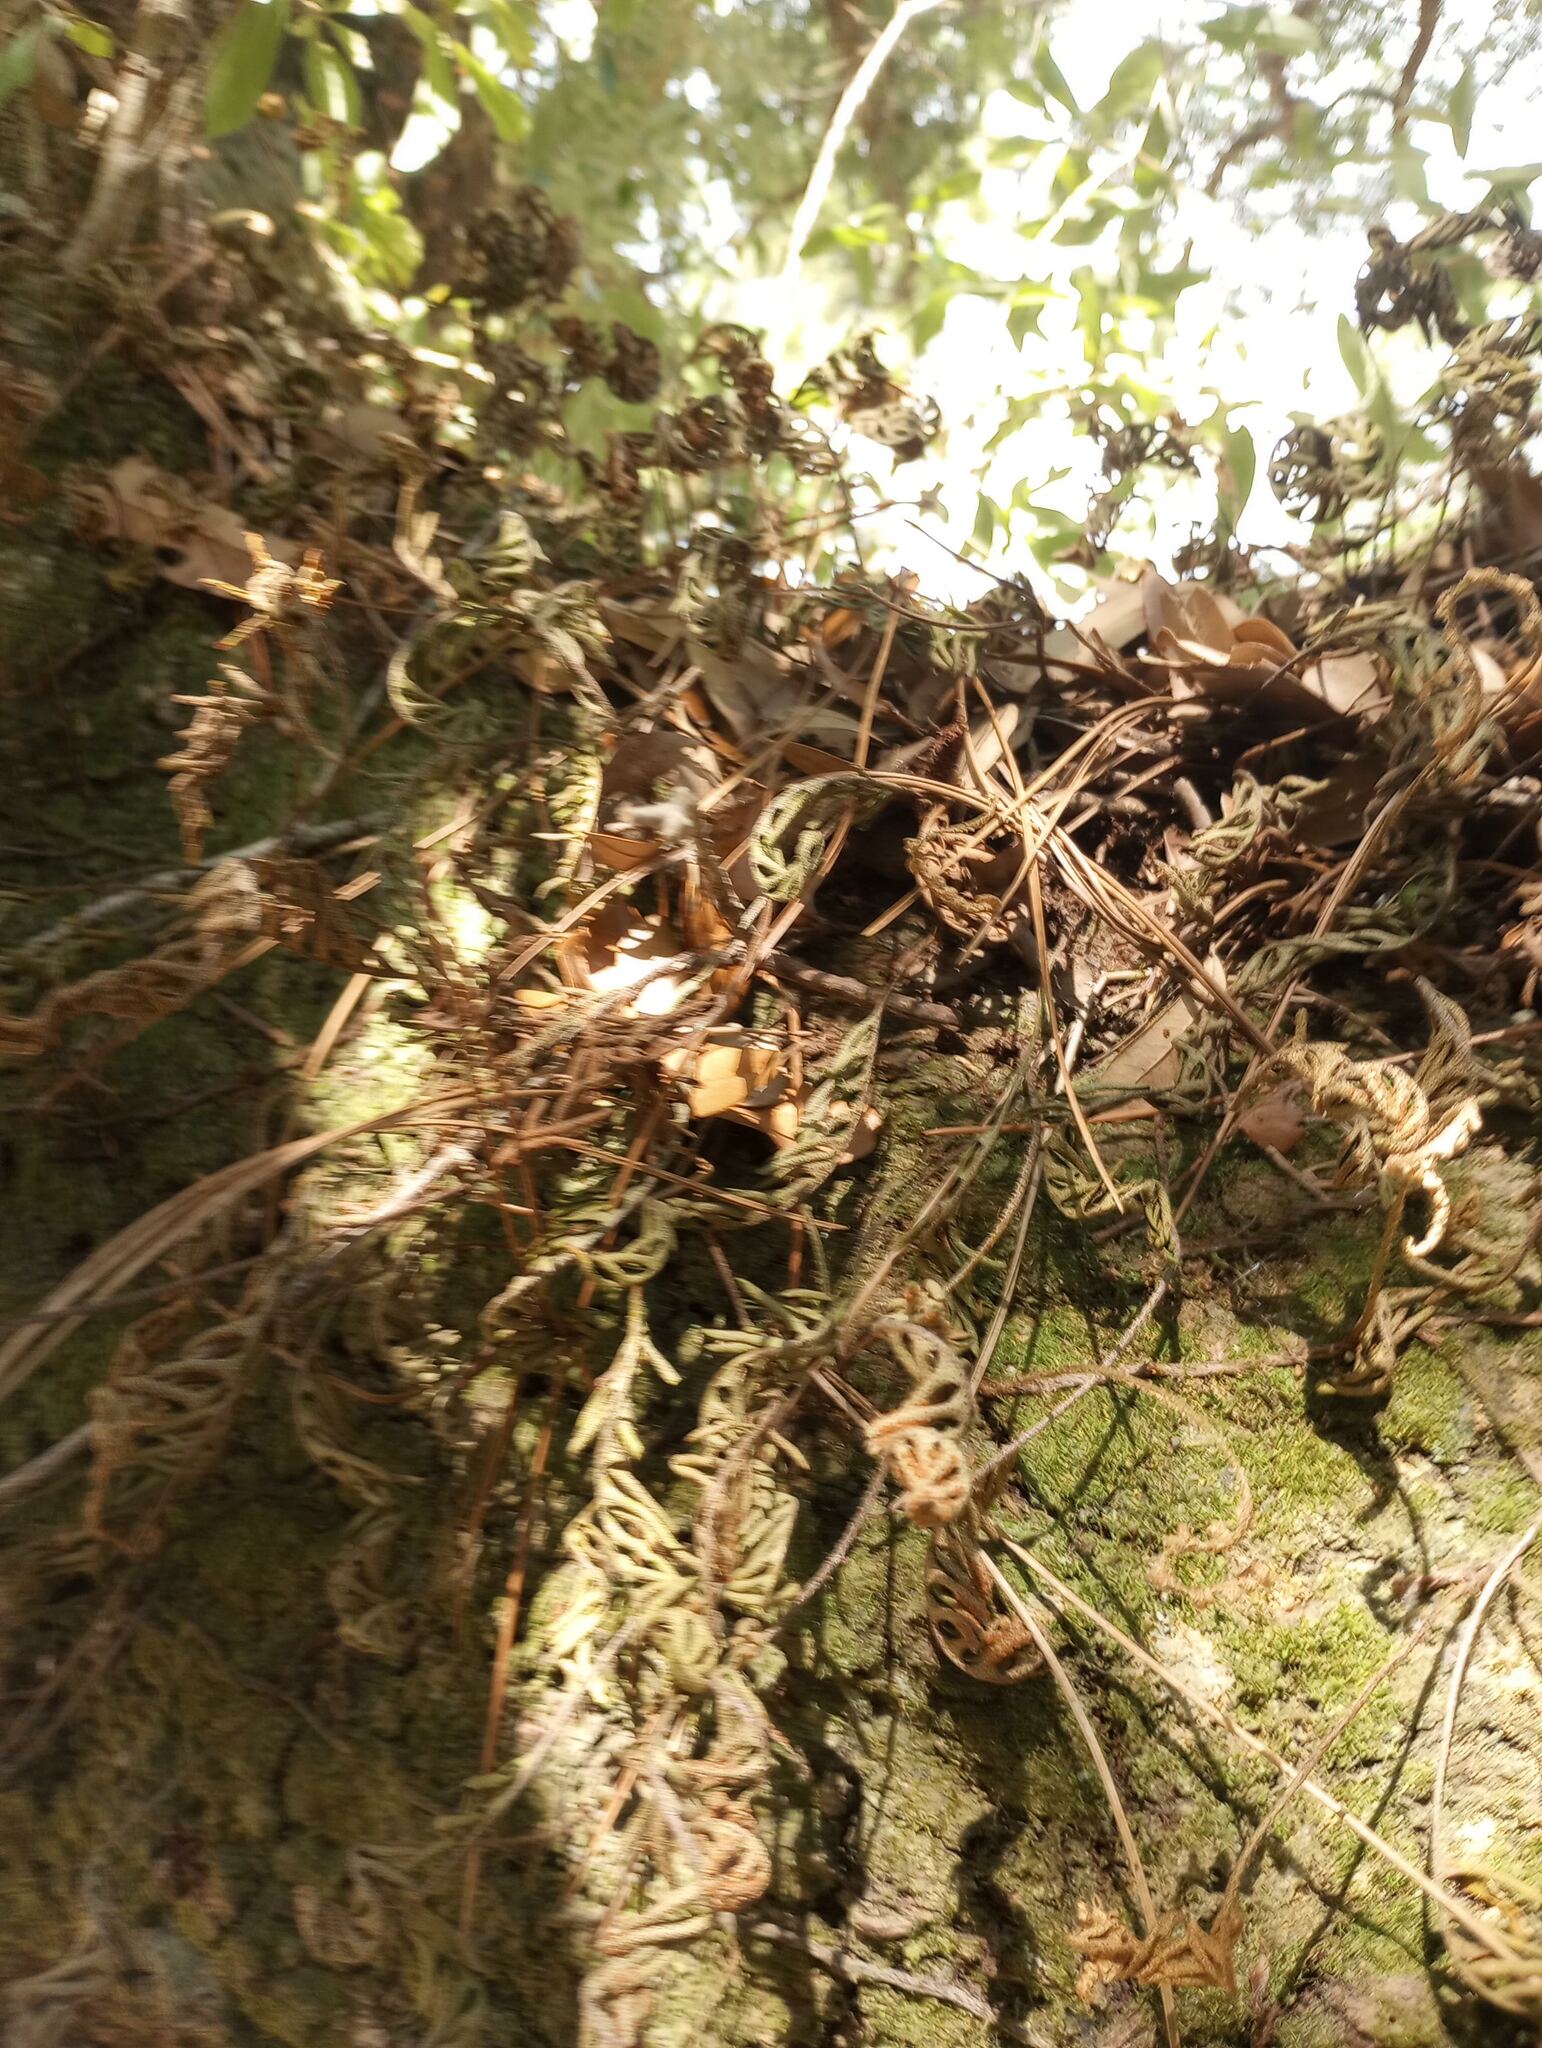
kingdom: Plantae
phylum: Tracheophyta
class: Polypodiopsida
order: Polypodiales
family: Polypodiaceae
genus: Pleopeltis
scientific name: Pleopeltis michauxiana
